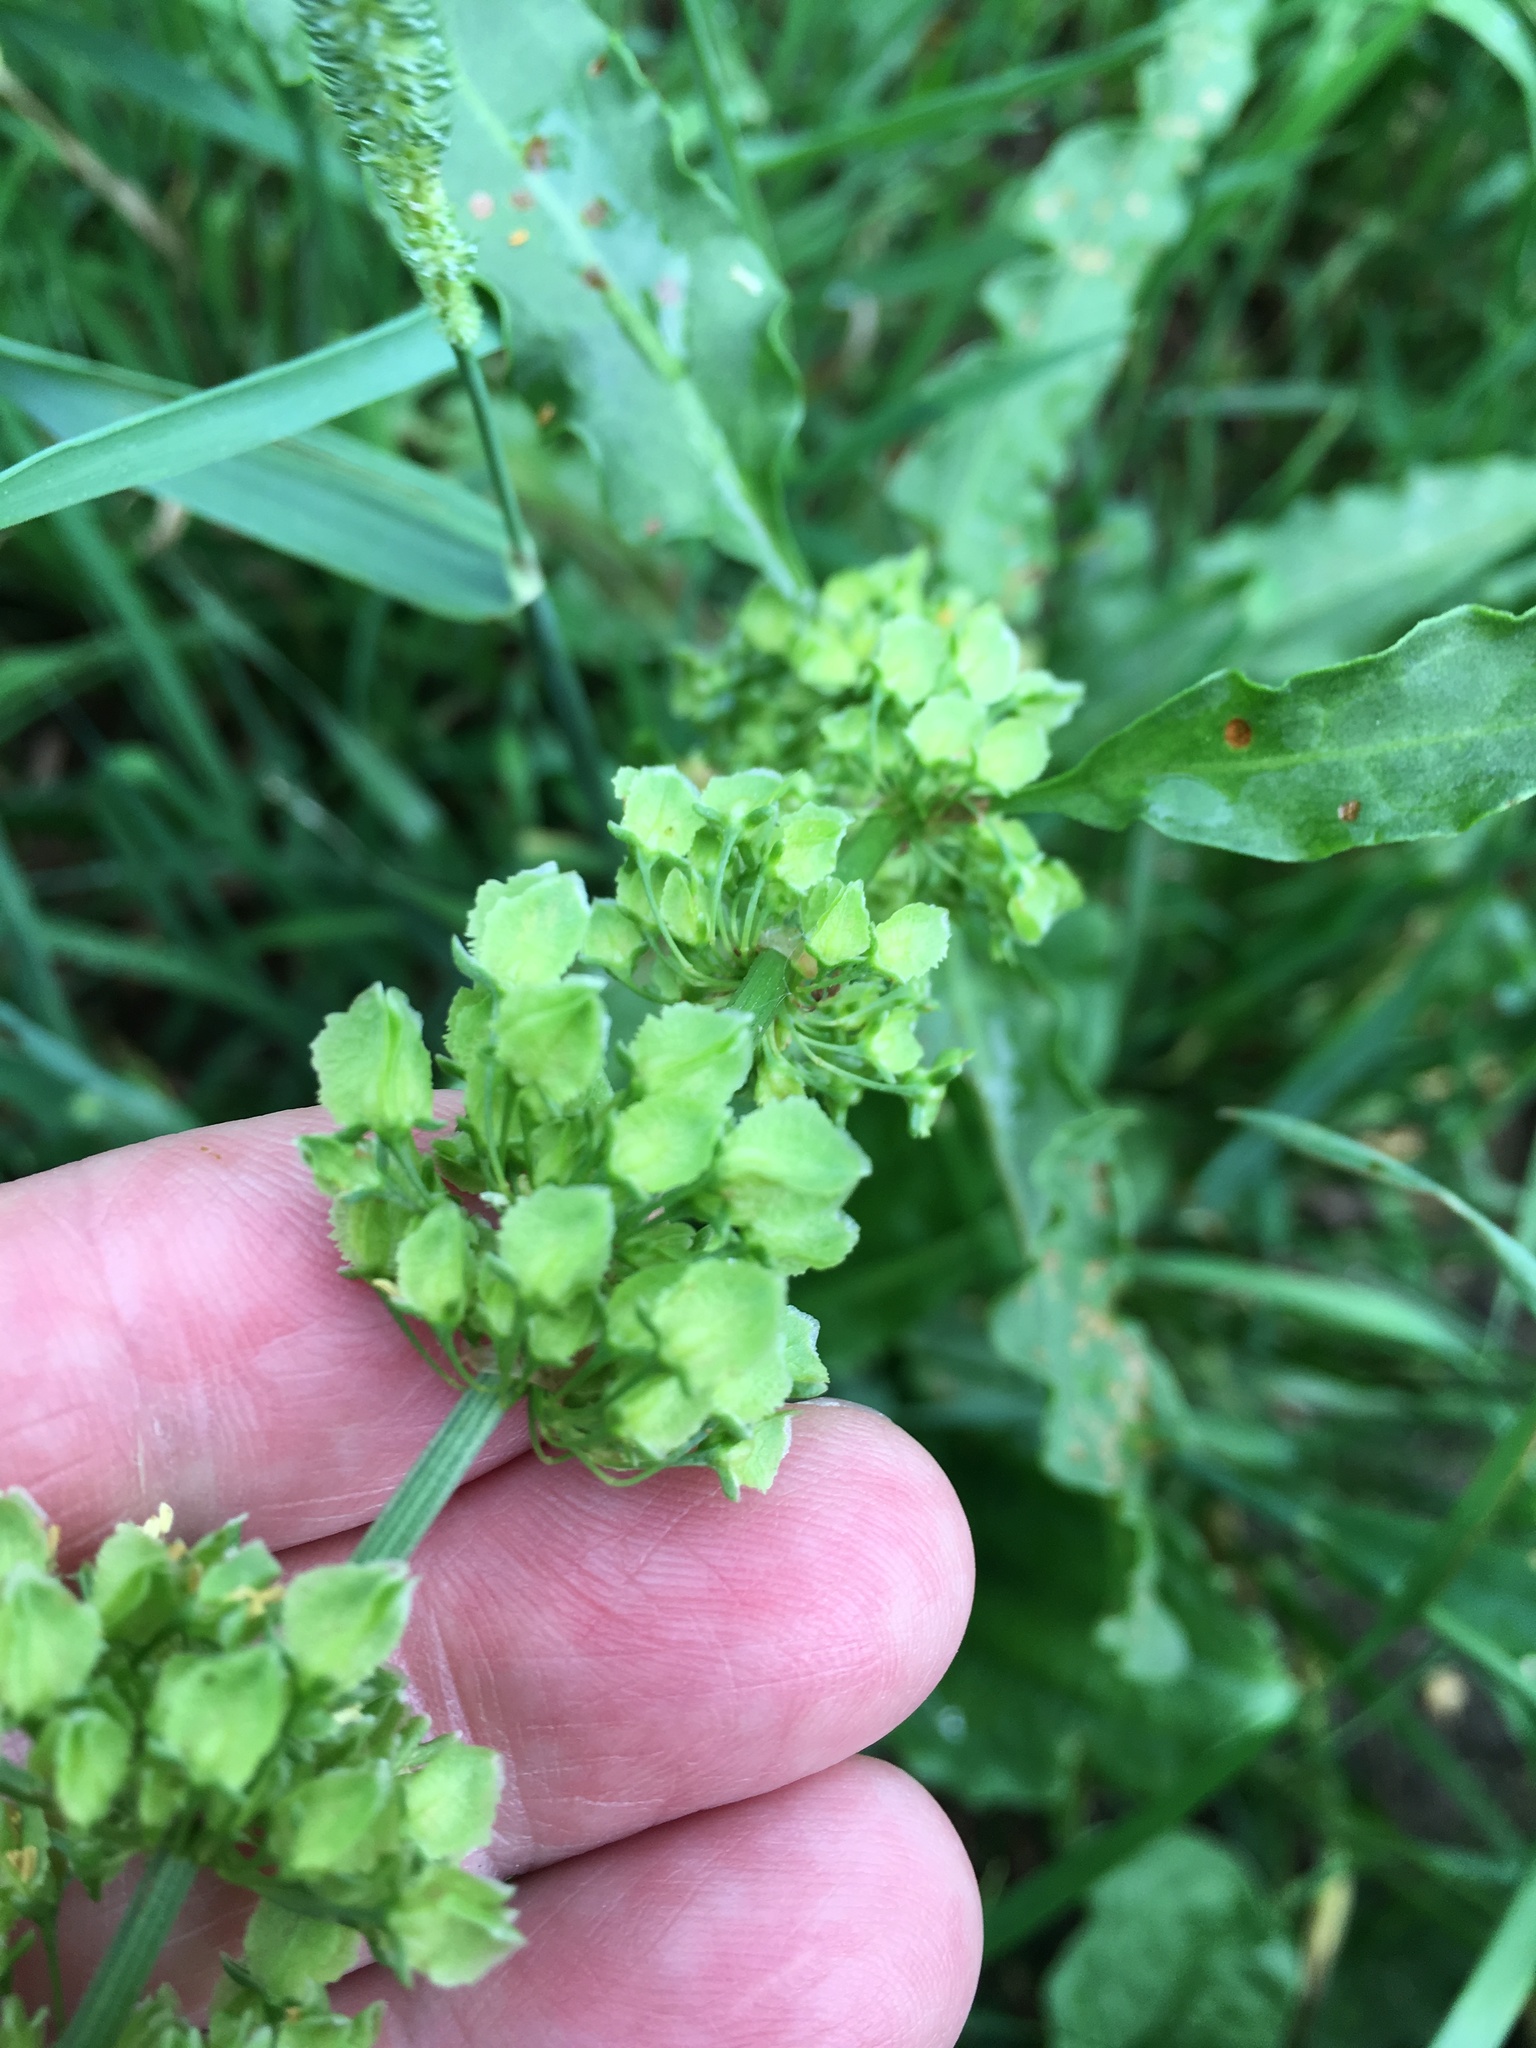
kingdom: Plantae
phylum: Tracheophyta
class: Magnoliopsida
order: Caryophyllales
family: Polygonaceae
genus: Rumex
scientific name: Rumex crispus
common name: Curled dock
